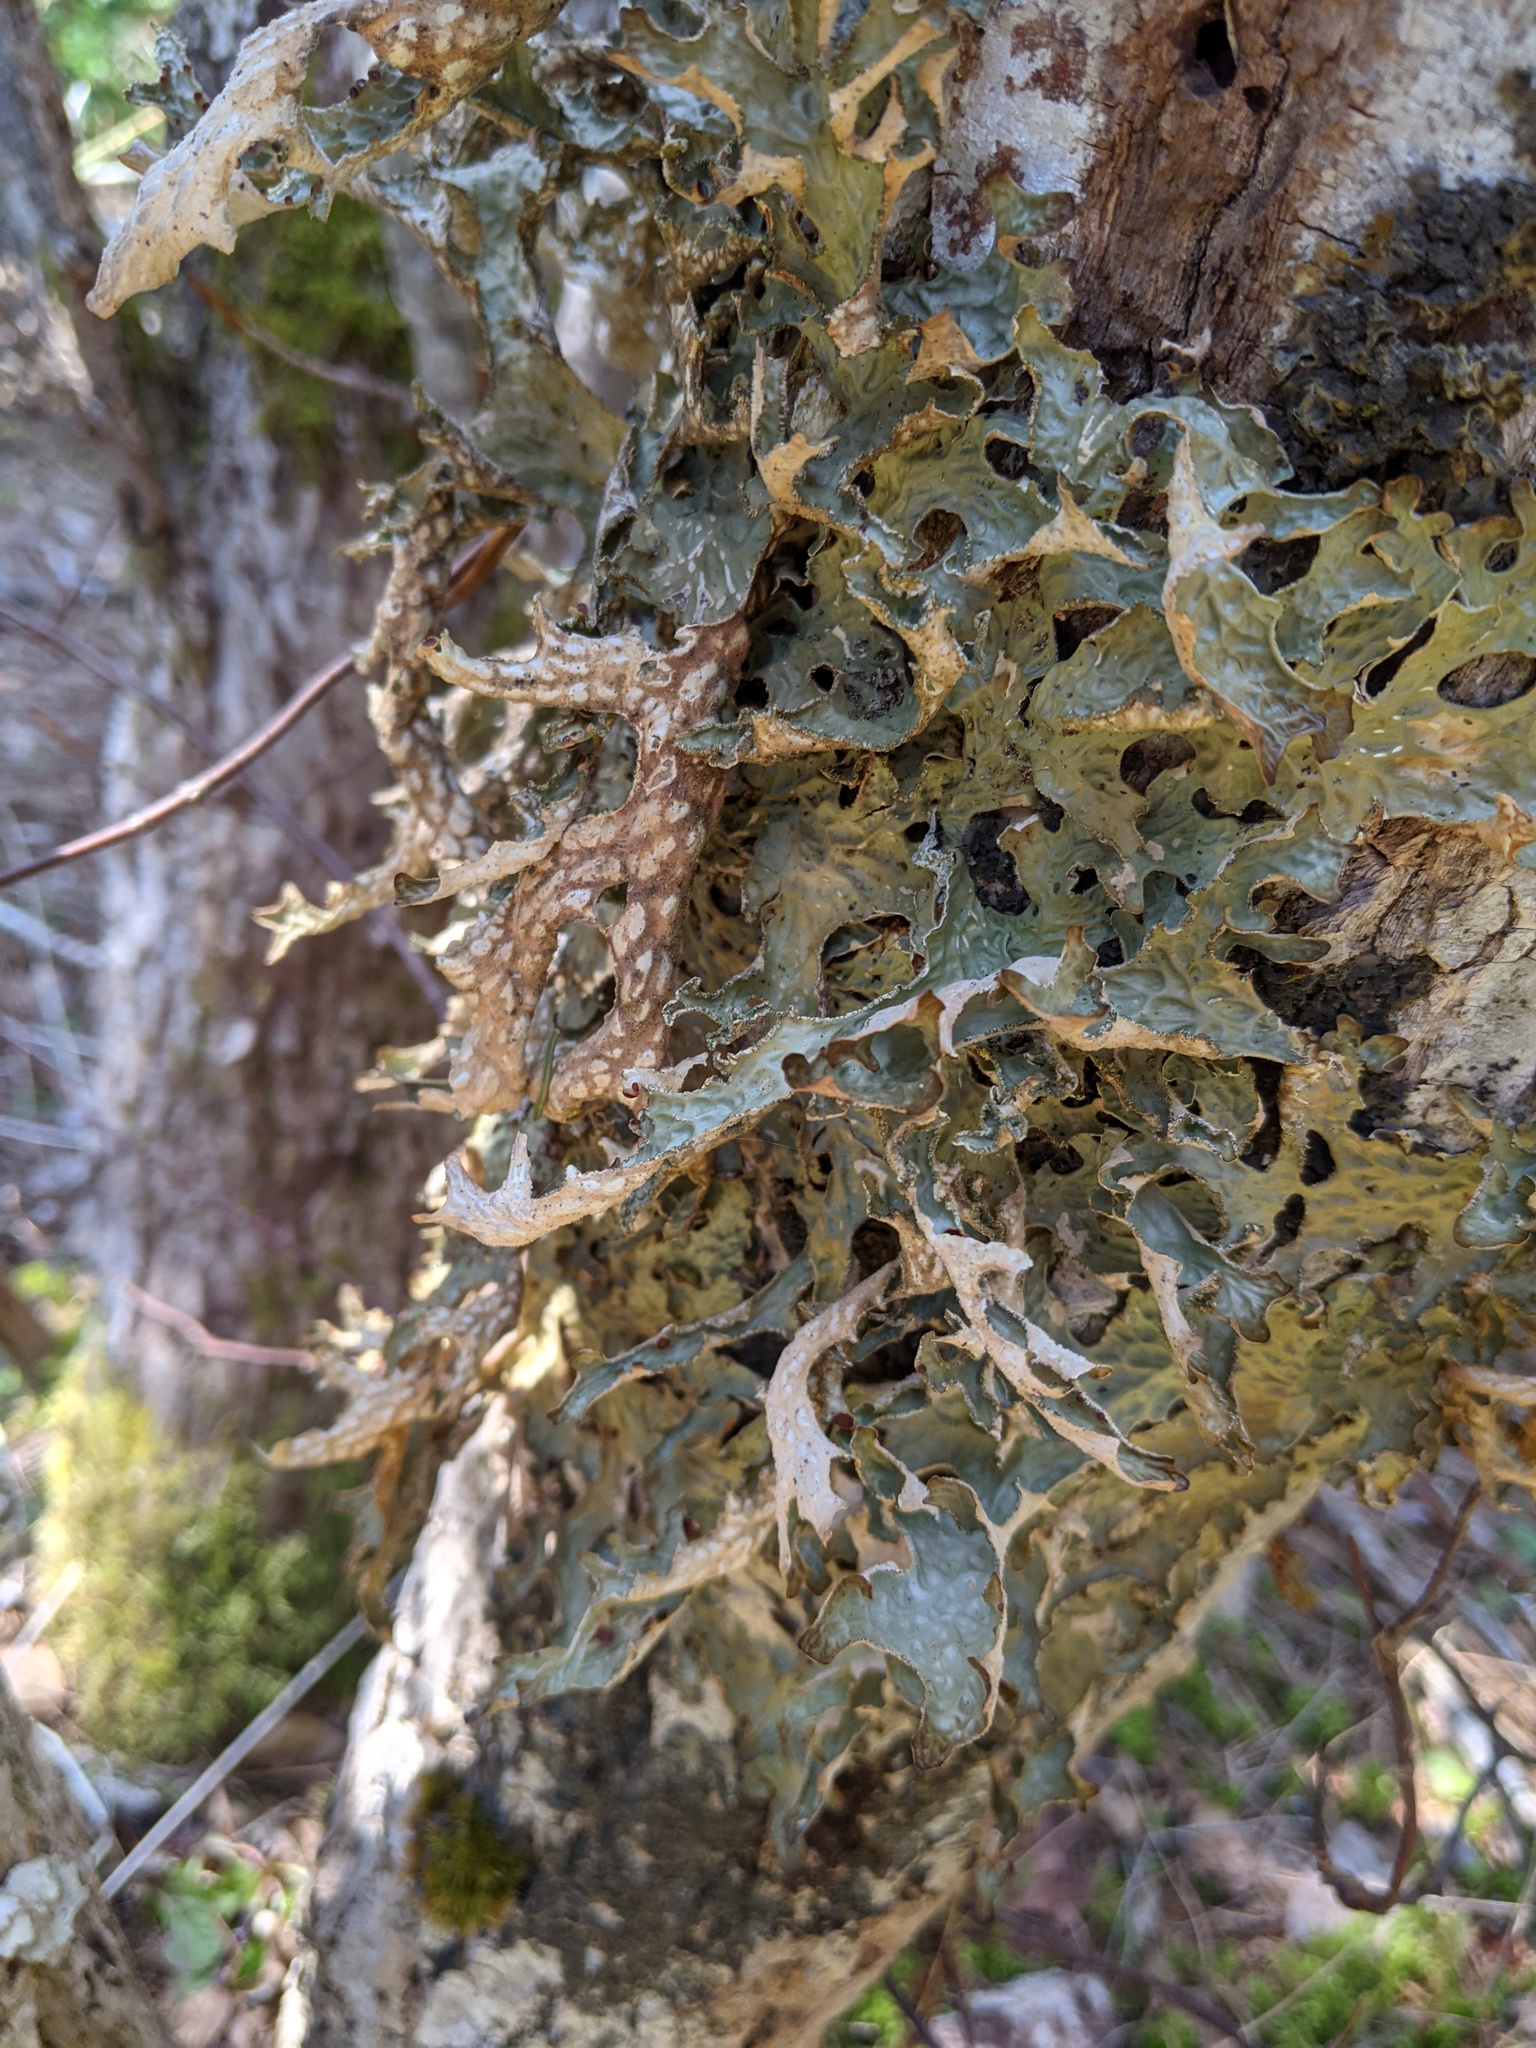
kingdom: Fungi
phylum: Ascomycota
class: Lecanoromycetes
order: Peltigerales
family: Lobariaceae
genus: Lobaria
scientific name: Lobaria pulmonaria
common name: Lungwort
